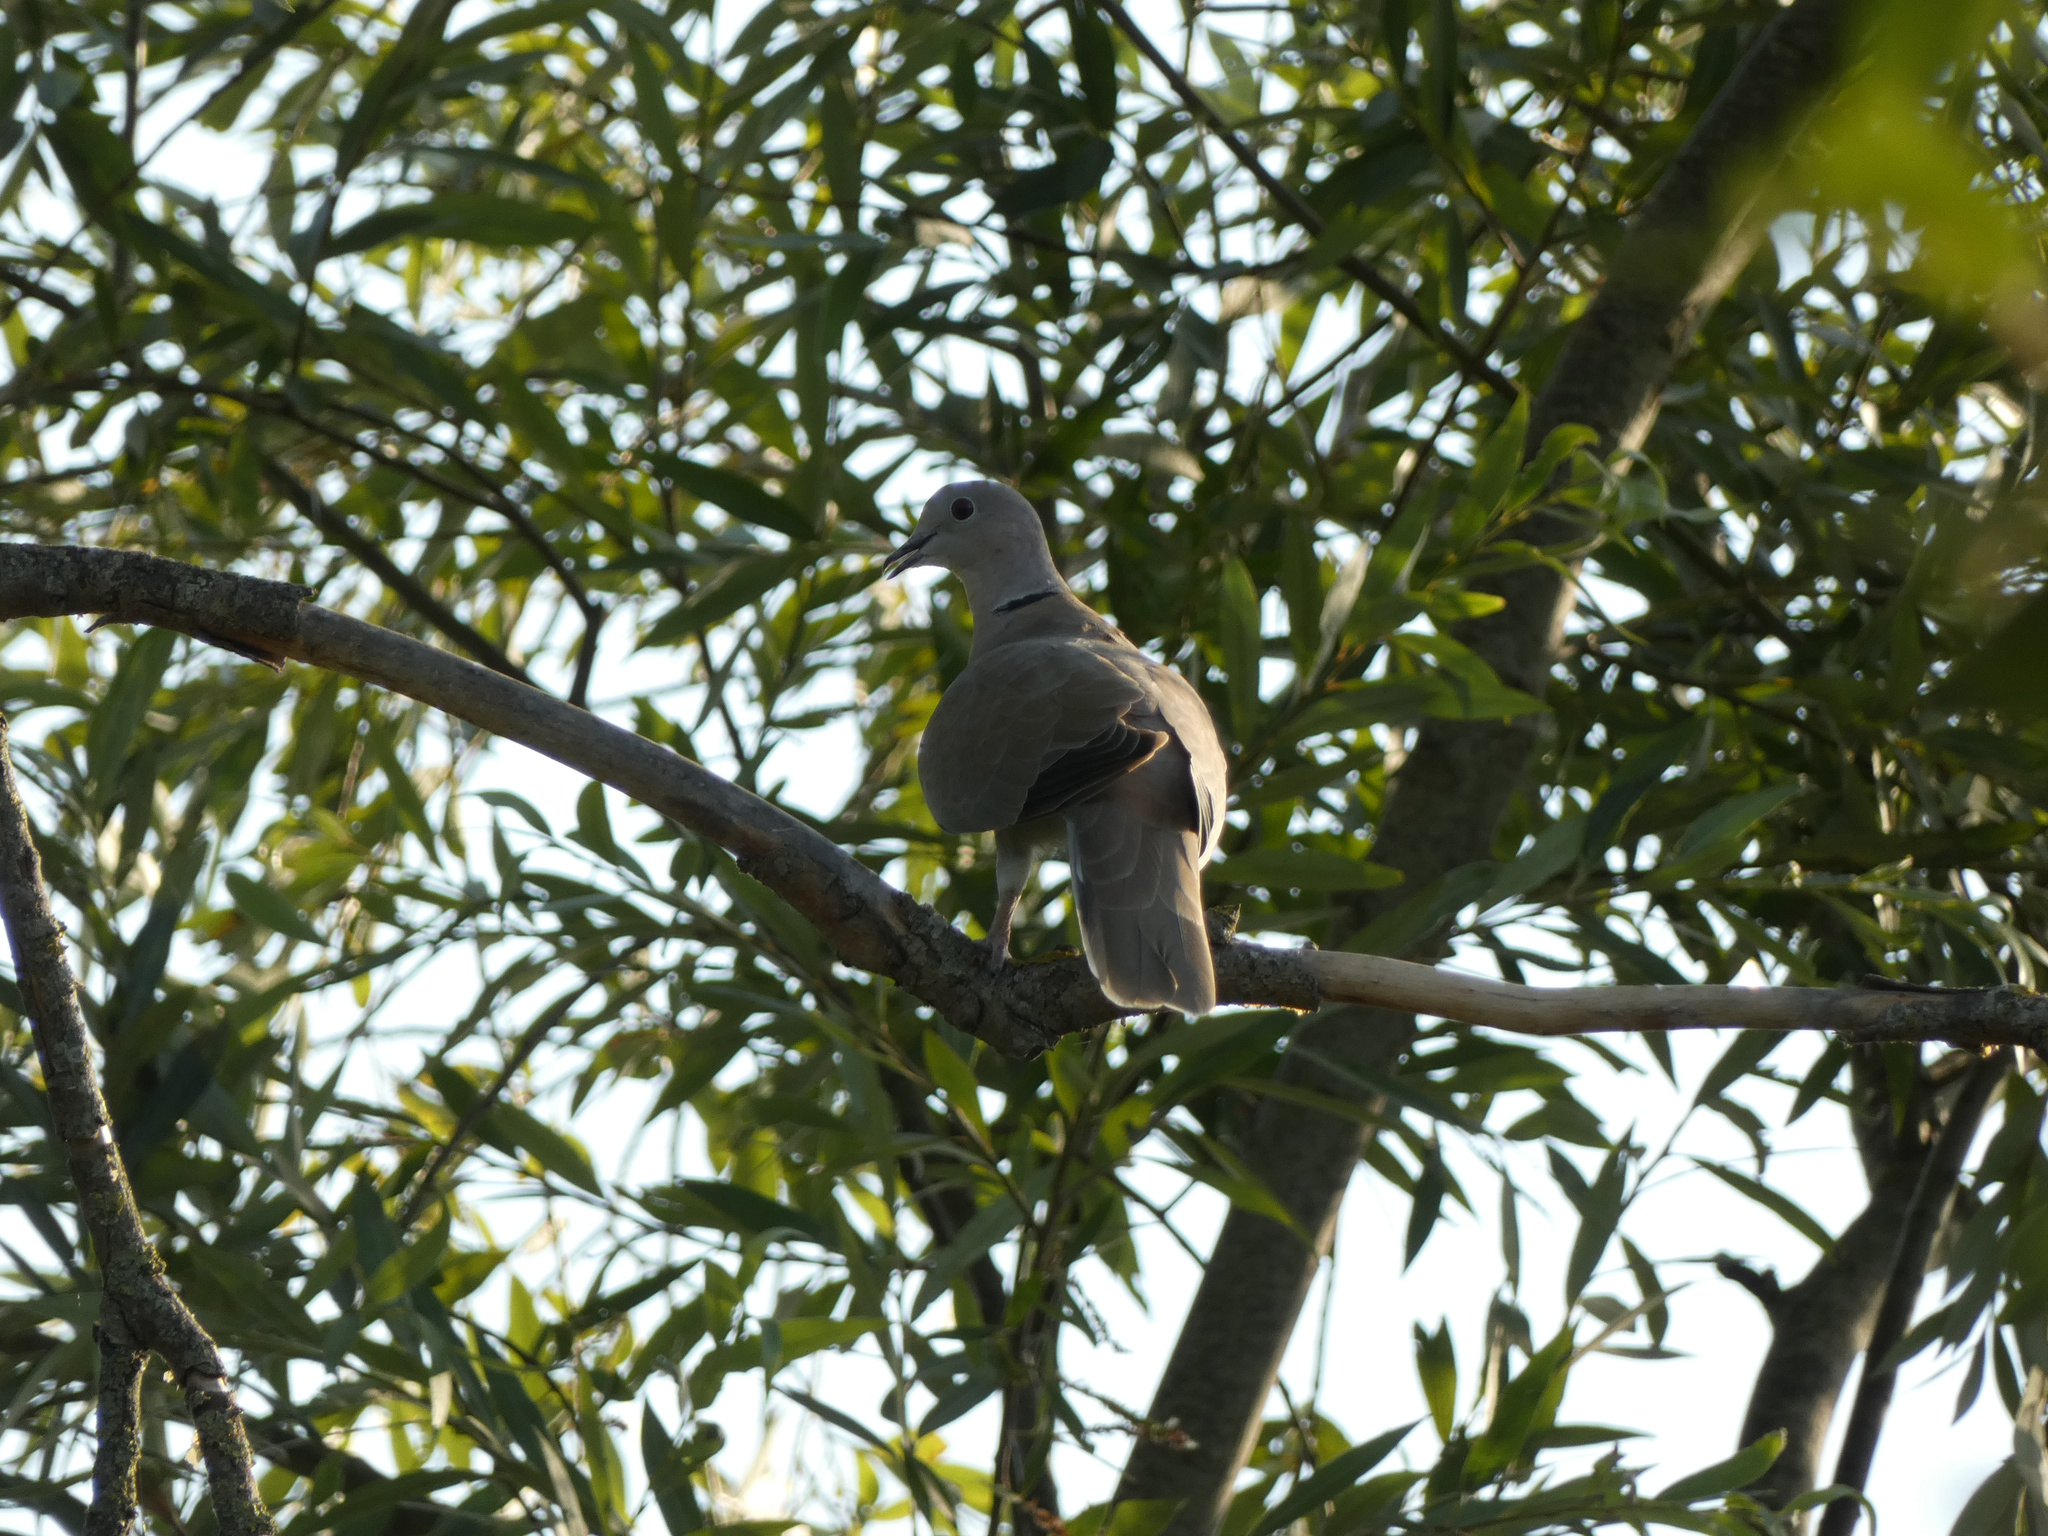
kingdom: Animalia
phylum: Chordata
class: Aves
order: Columbiformes
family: Columbidae
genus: Streptopelia
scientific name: Streptopelia decaocto
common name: Eurasian collared dove
